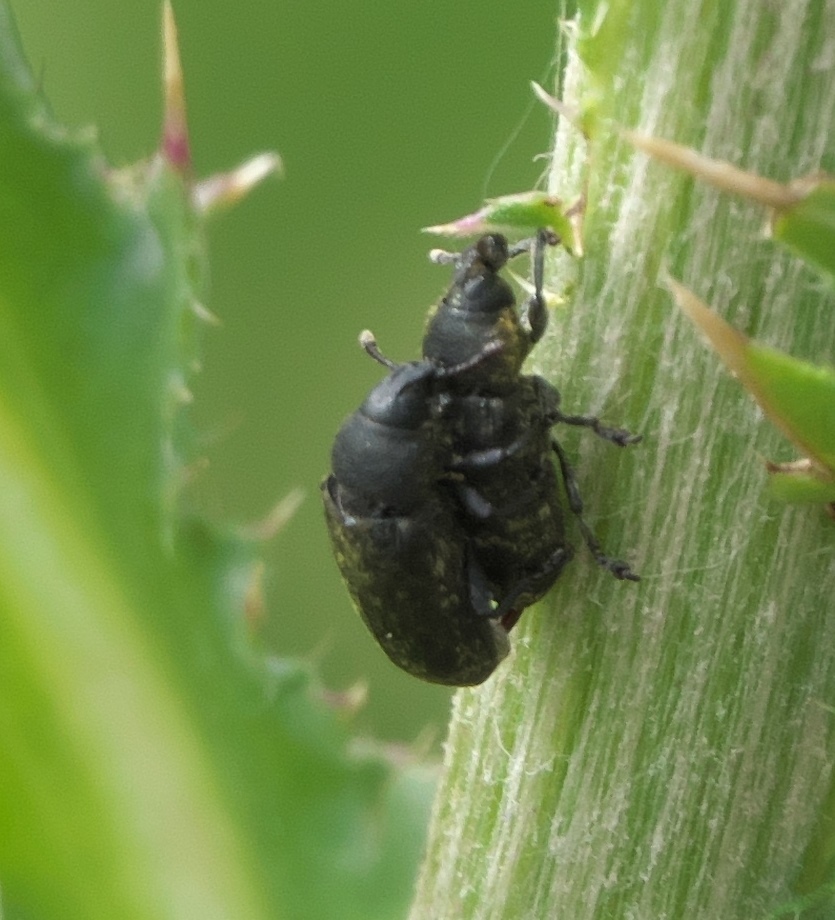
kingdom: Animalia
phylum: Arthropoda
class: Insecta
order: Coleoptera
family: Curculionidae
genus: Rhinocyllus
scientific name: Rhinocyllus conicus
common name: Weevil
